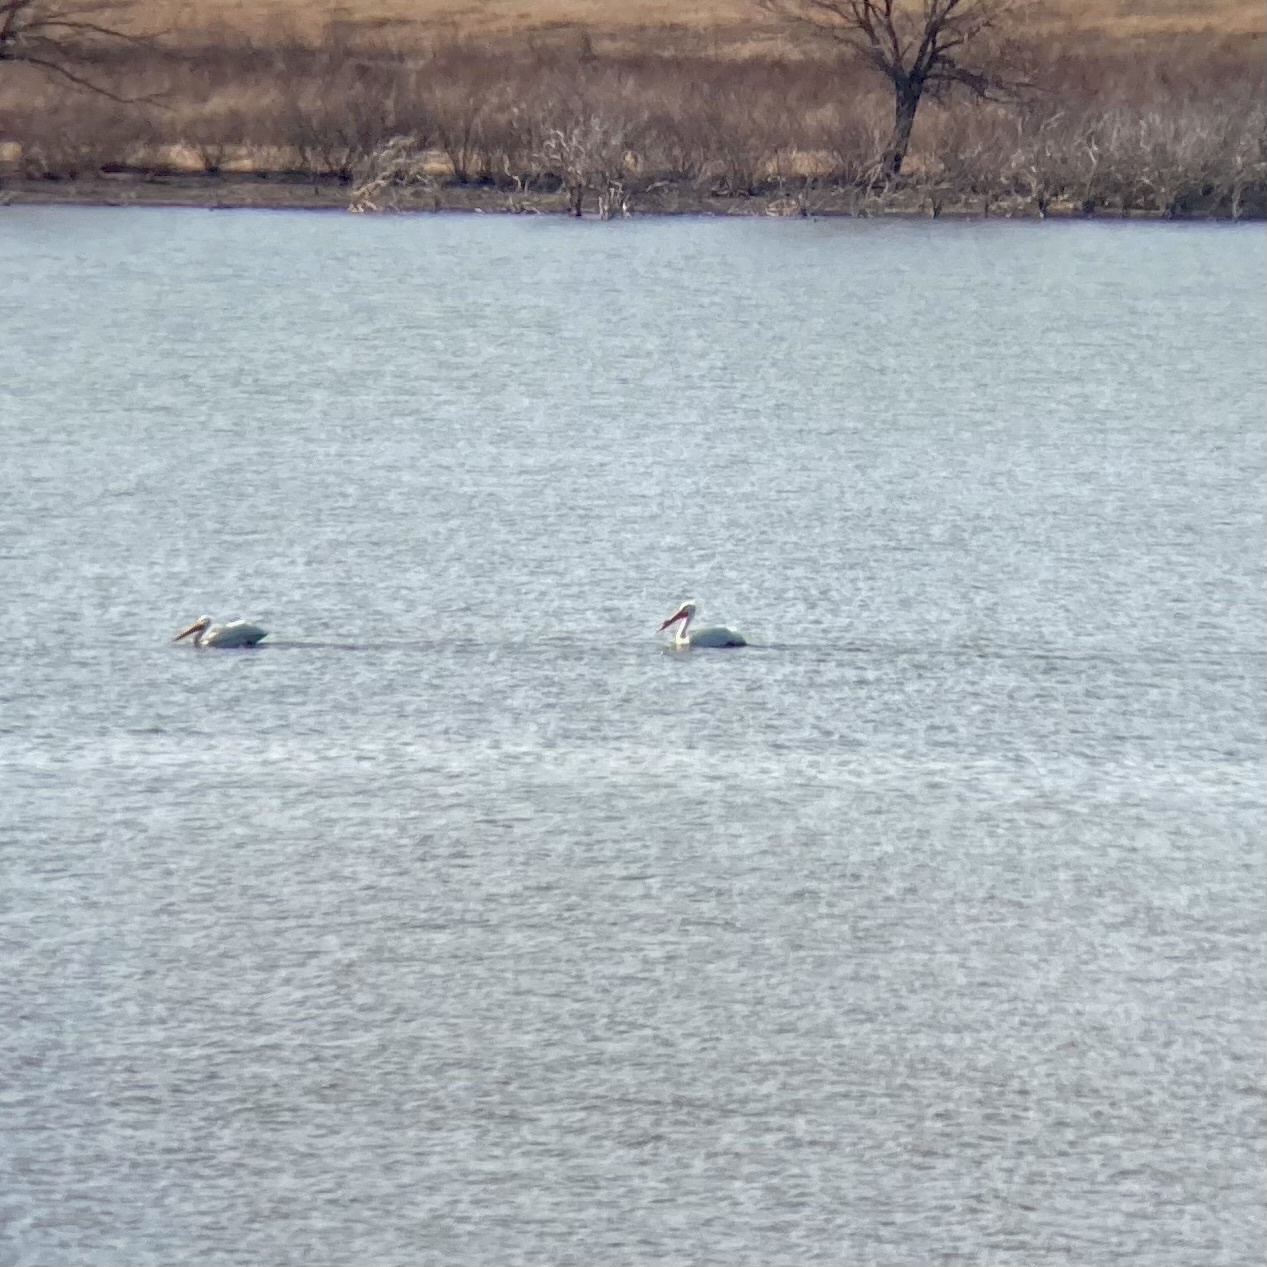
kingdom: Animalia
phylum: Chordata
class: Aves
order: Pelecaniformes
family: Pelecanidae
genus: Pelecanus
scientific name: Pelecanus erythrorhynchos
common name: American white pelican
